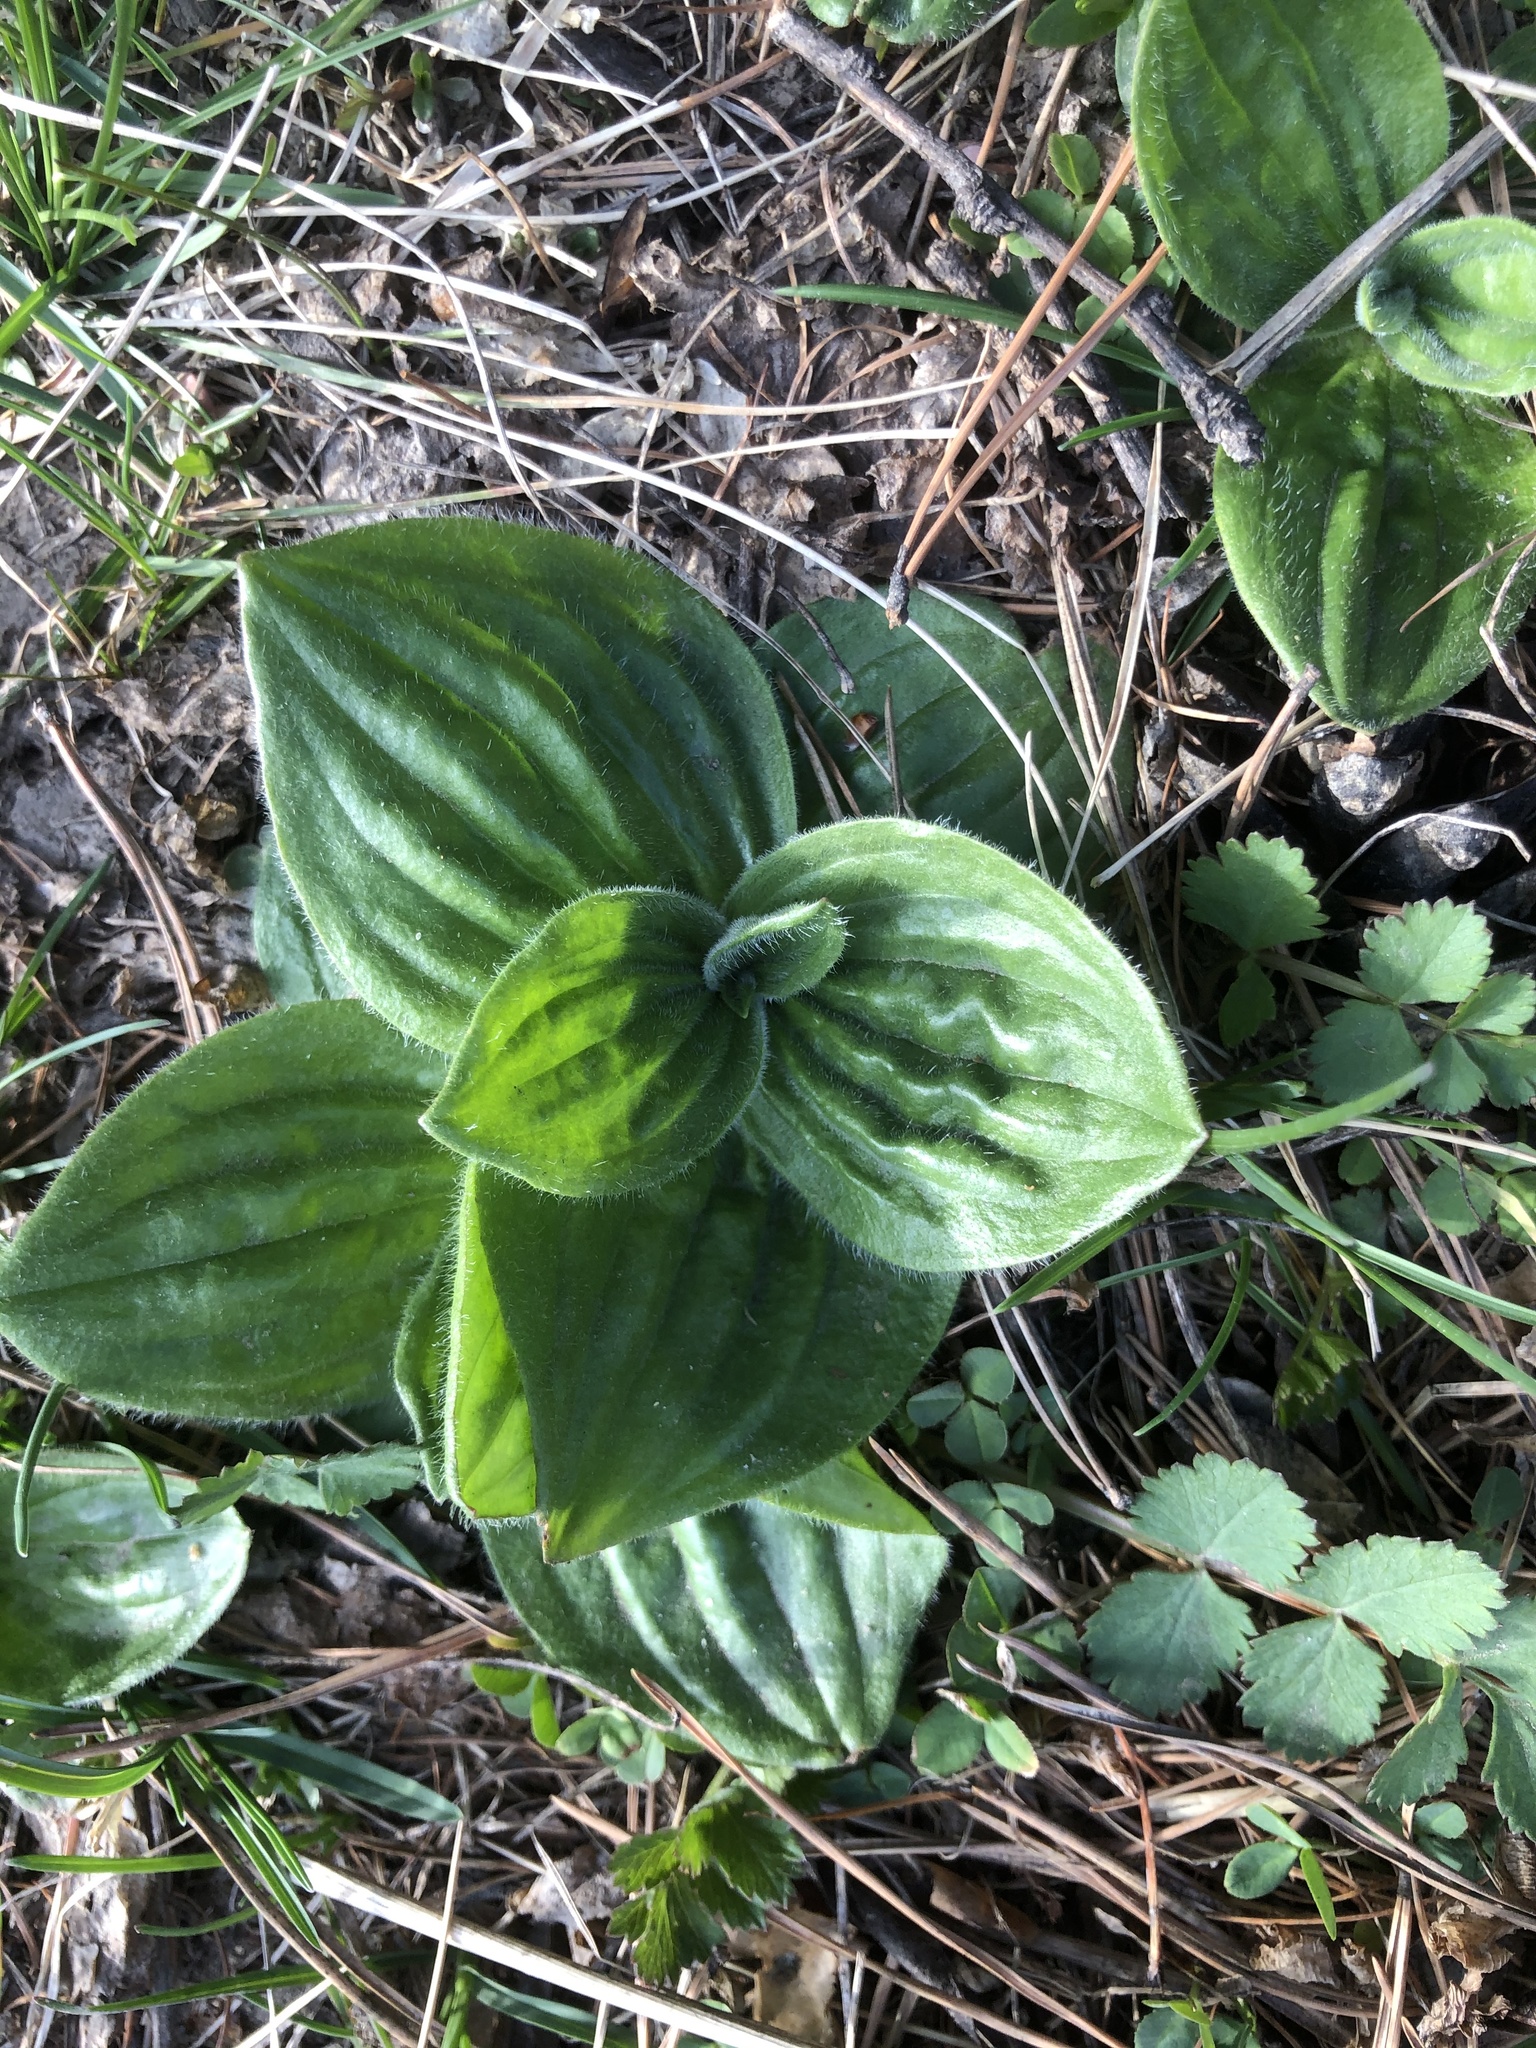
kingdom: Plantae
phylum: Tracheophyta
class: Magnoliopsida
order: Lamiales
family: Plantaginaceae
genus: Plantago
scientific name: Plantago media
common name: Hoary plantain
